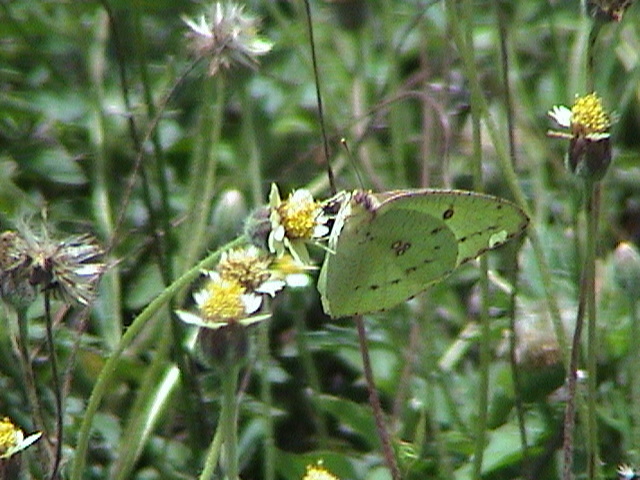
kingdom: Animalia
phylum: Arthropoda
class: Insecta
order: Lepidoptera
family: Pieridae
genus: Catopsilia
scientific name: Catopsilia pyranthe
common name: Mottled emigrant
